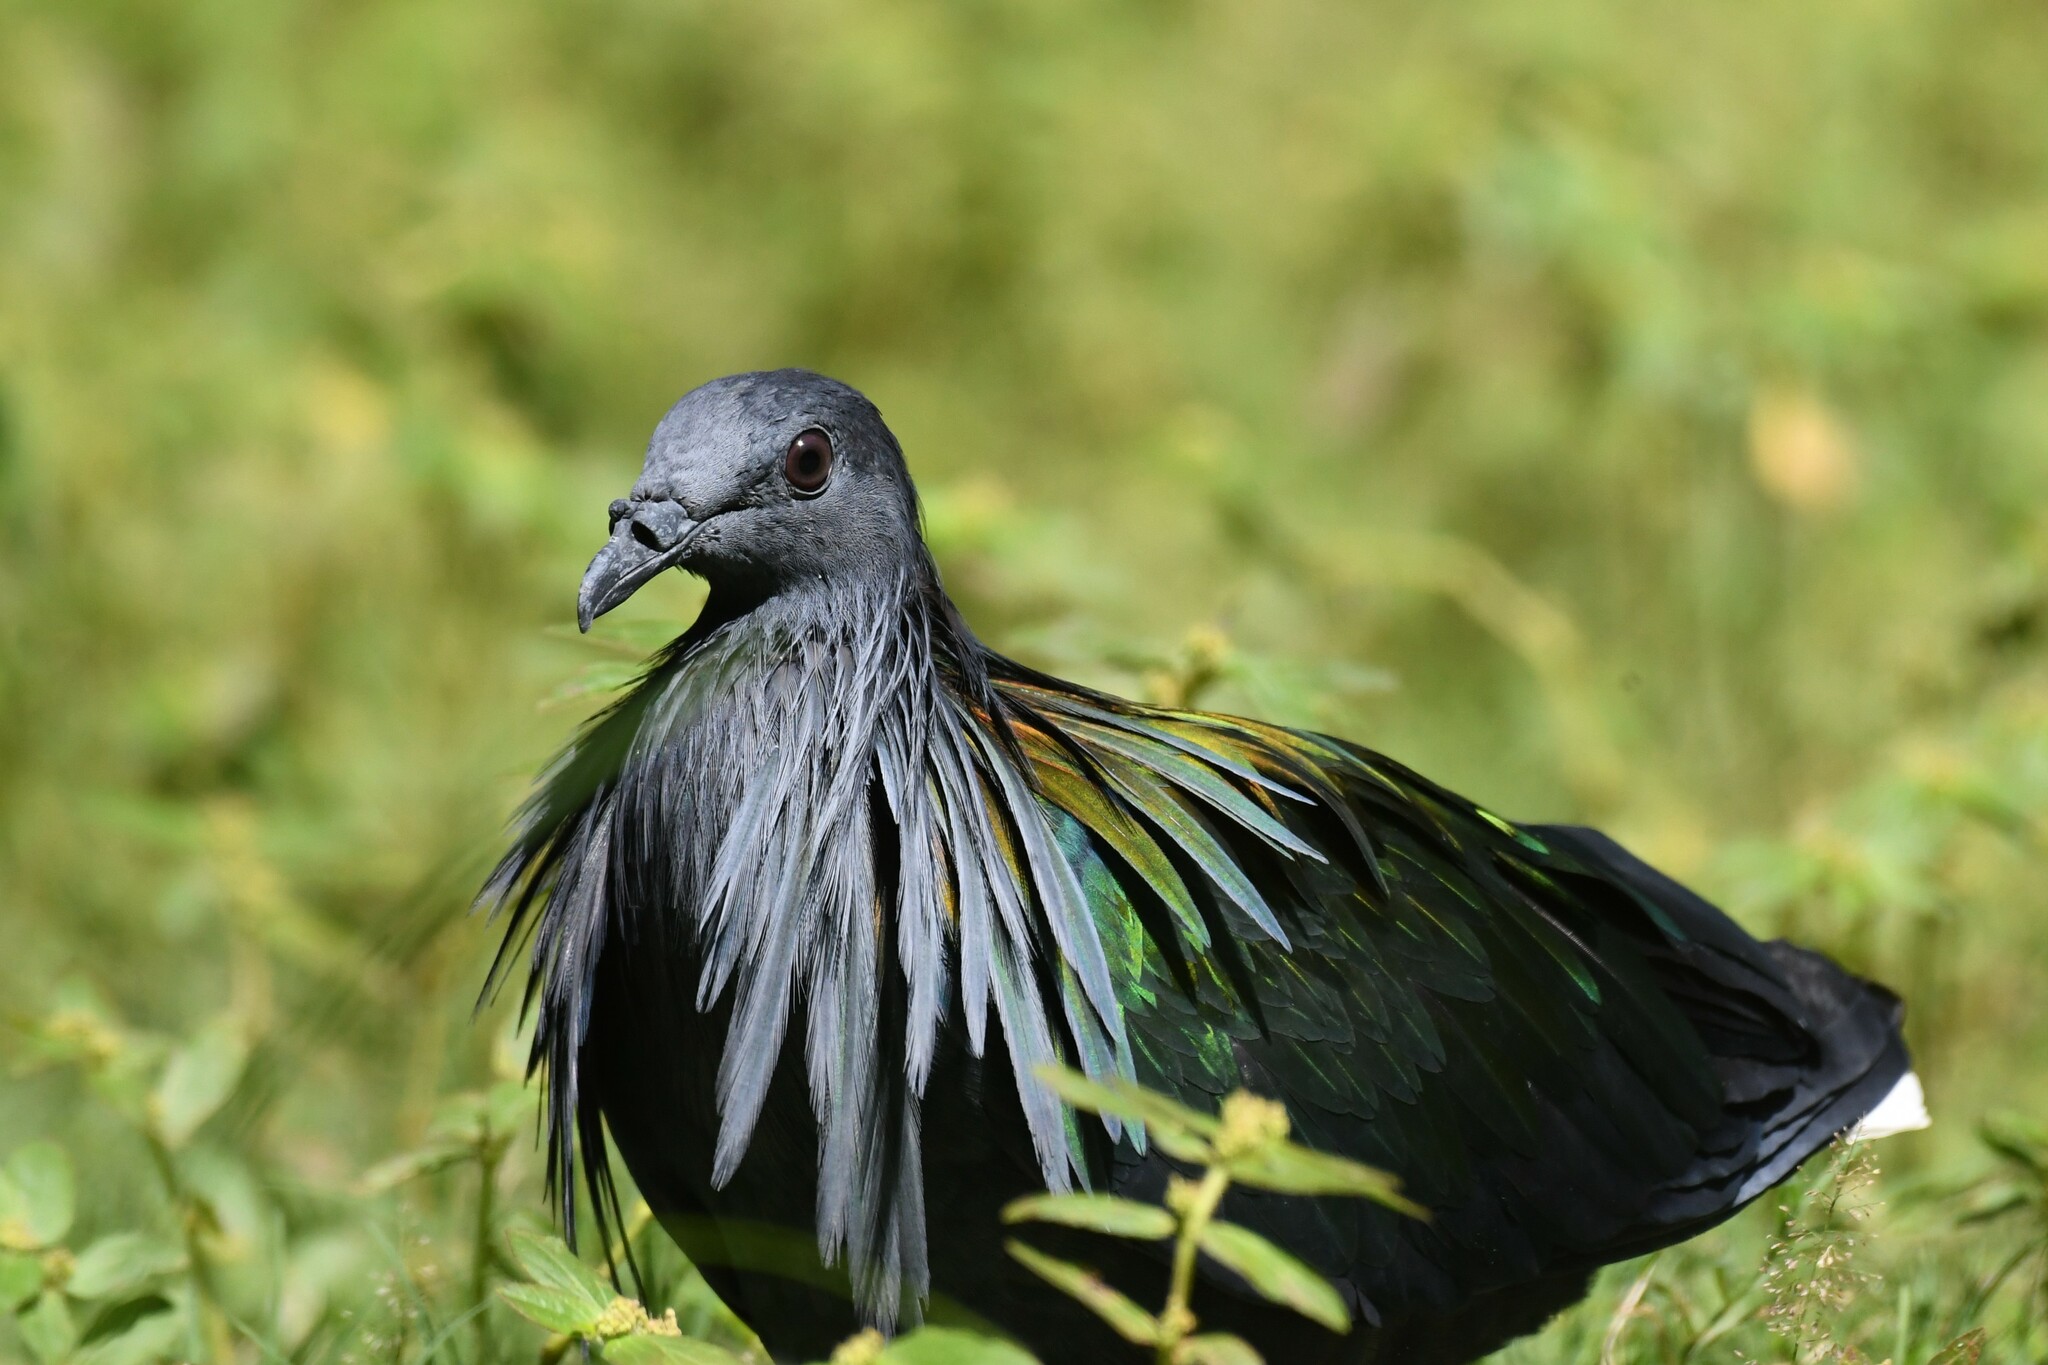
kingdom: Animalia
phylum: Chordata
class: Aves
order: Columbiformes
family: Columbidae
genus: Caloenas
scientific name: Caloenas nicobarica
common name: Nicobar pigeon
